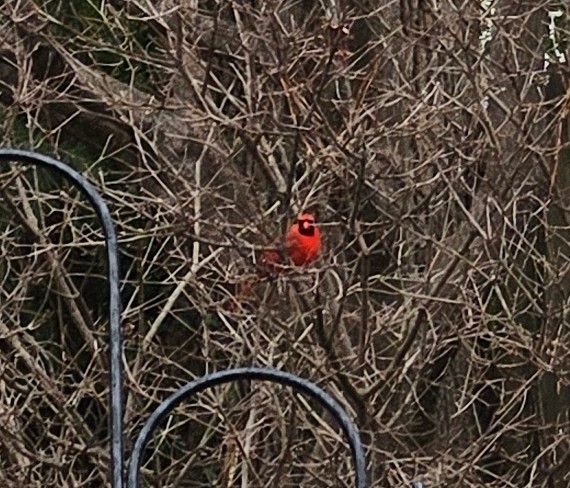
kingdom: Animalia
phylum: Chordata
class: Aves
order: Passeriformes
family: Cardinalidae
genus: Cardinalis
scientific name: Cardinalis cardinalis
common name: Northern cardinal
